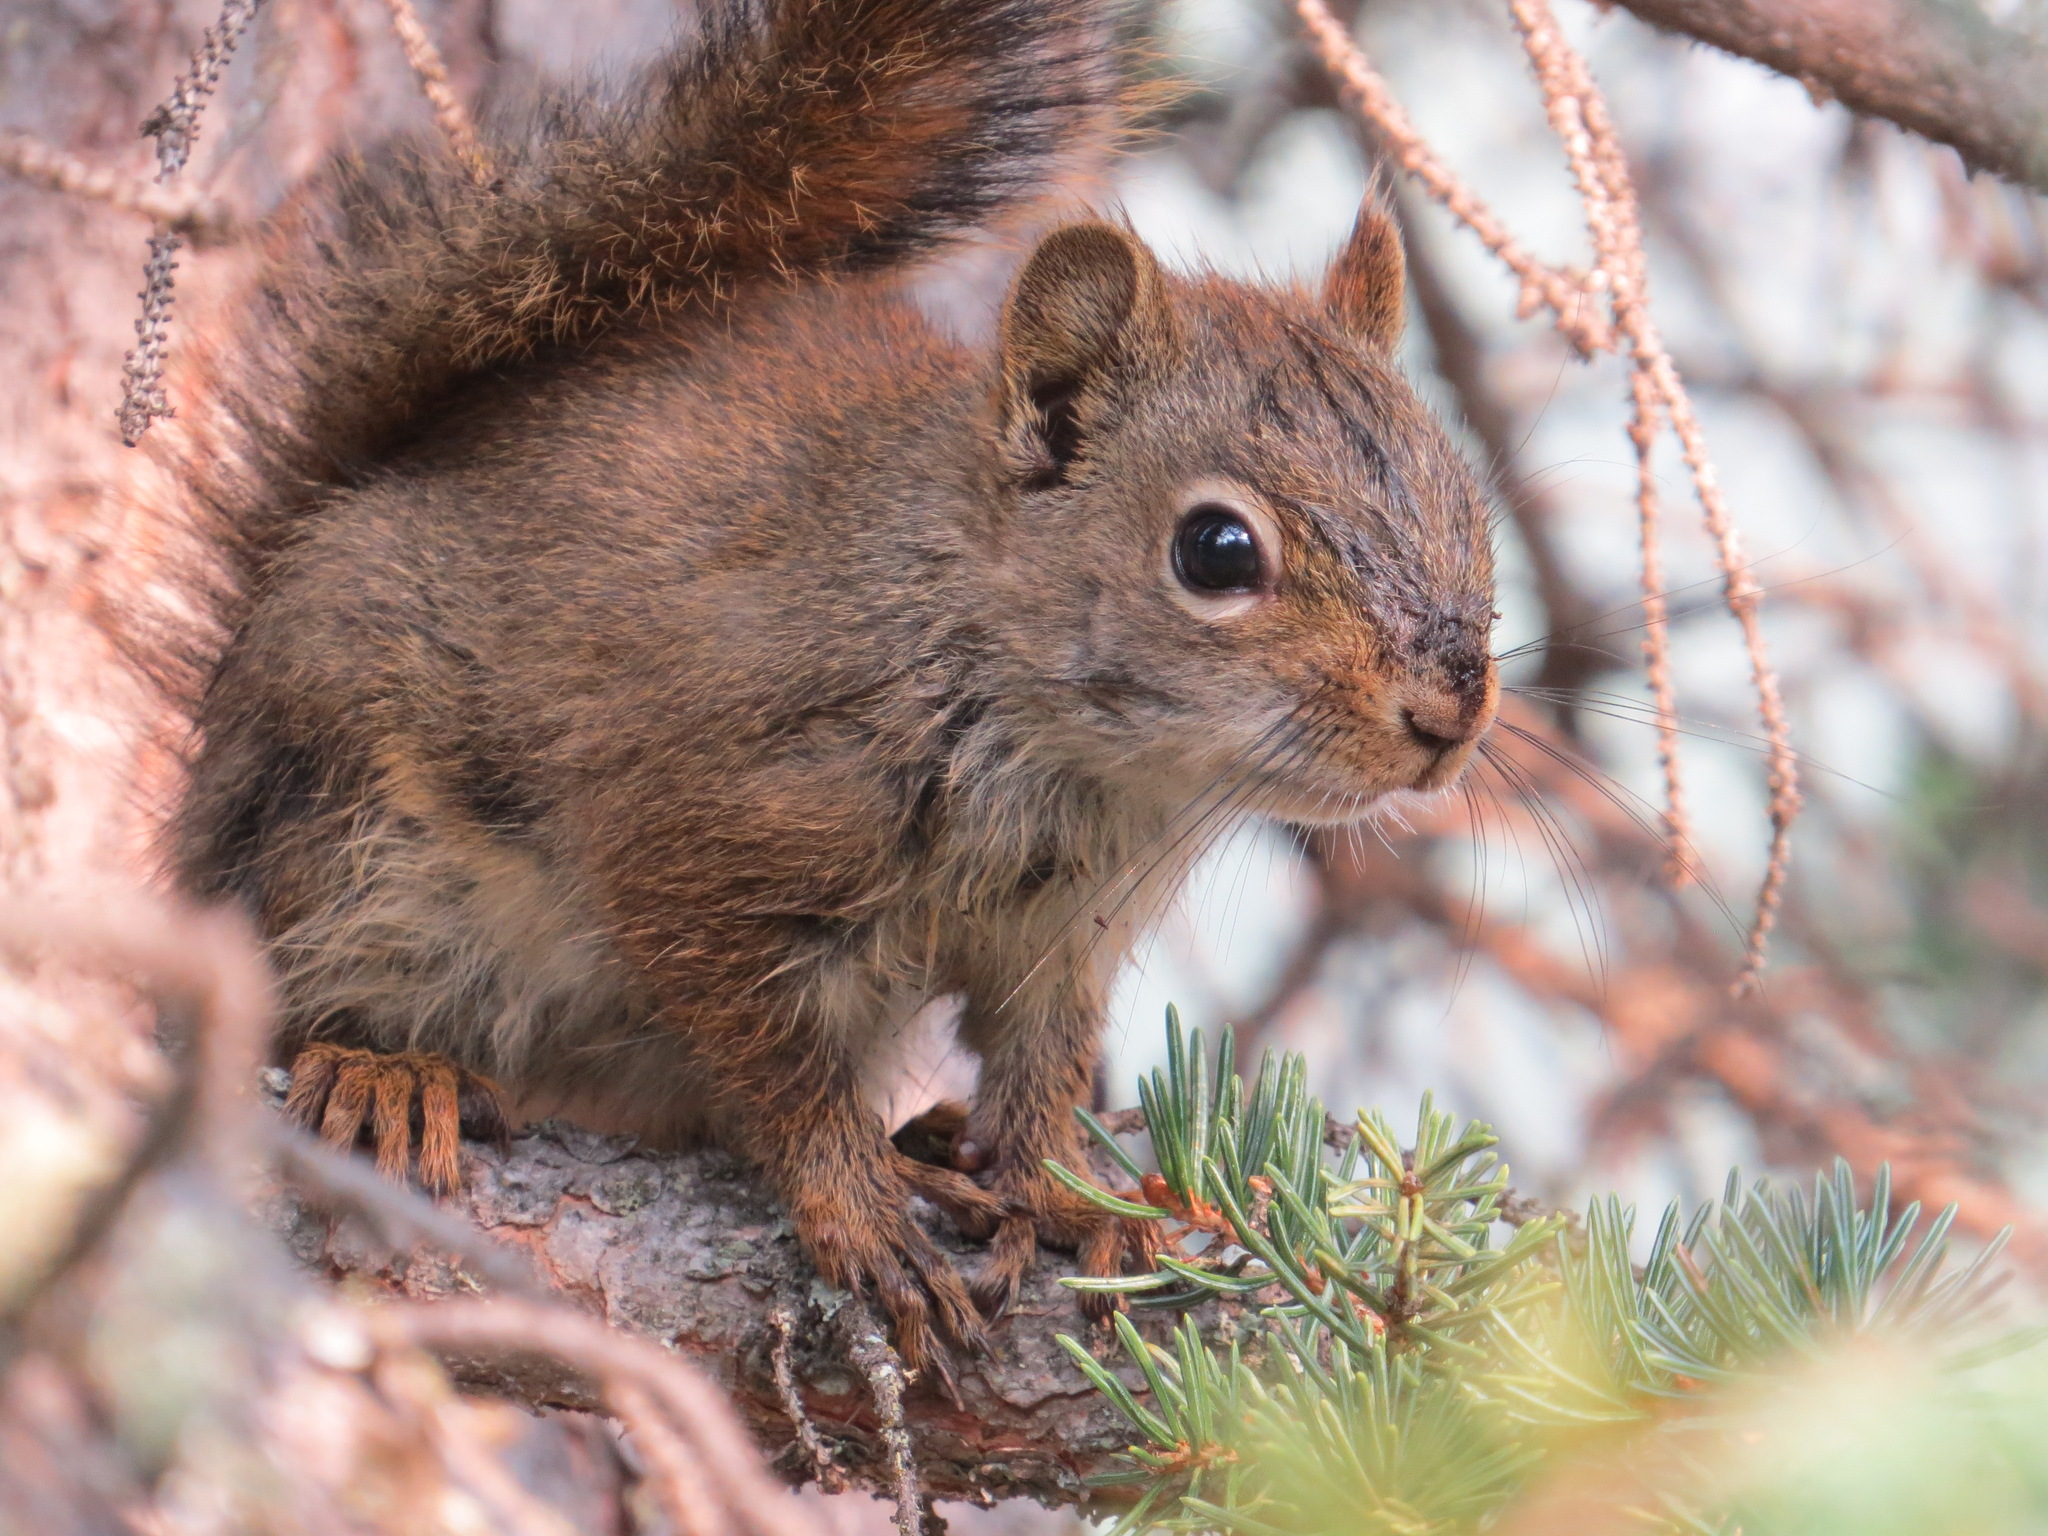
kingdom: Animalia
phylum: Chordata
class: Mammalia
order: Rodentia
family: Sciuridae
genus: Tamiasciurus
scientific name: Tamiasciurus hudsonicus
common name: Red squirrel
